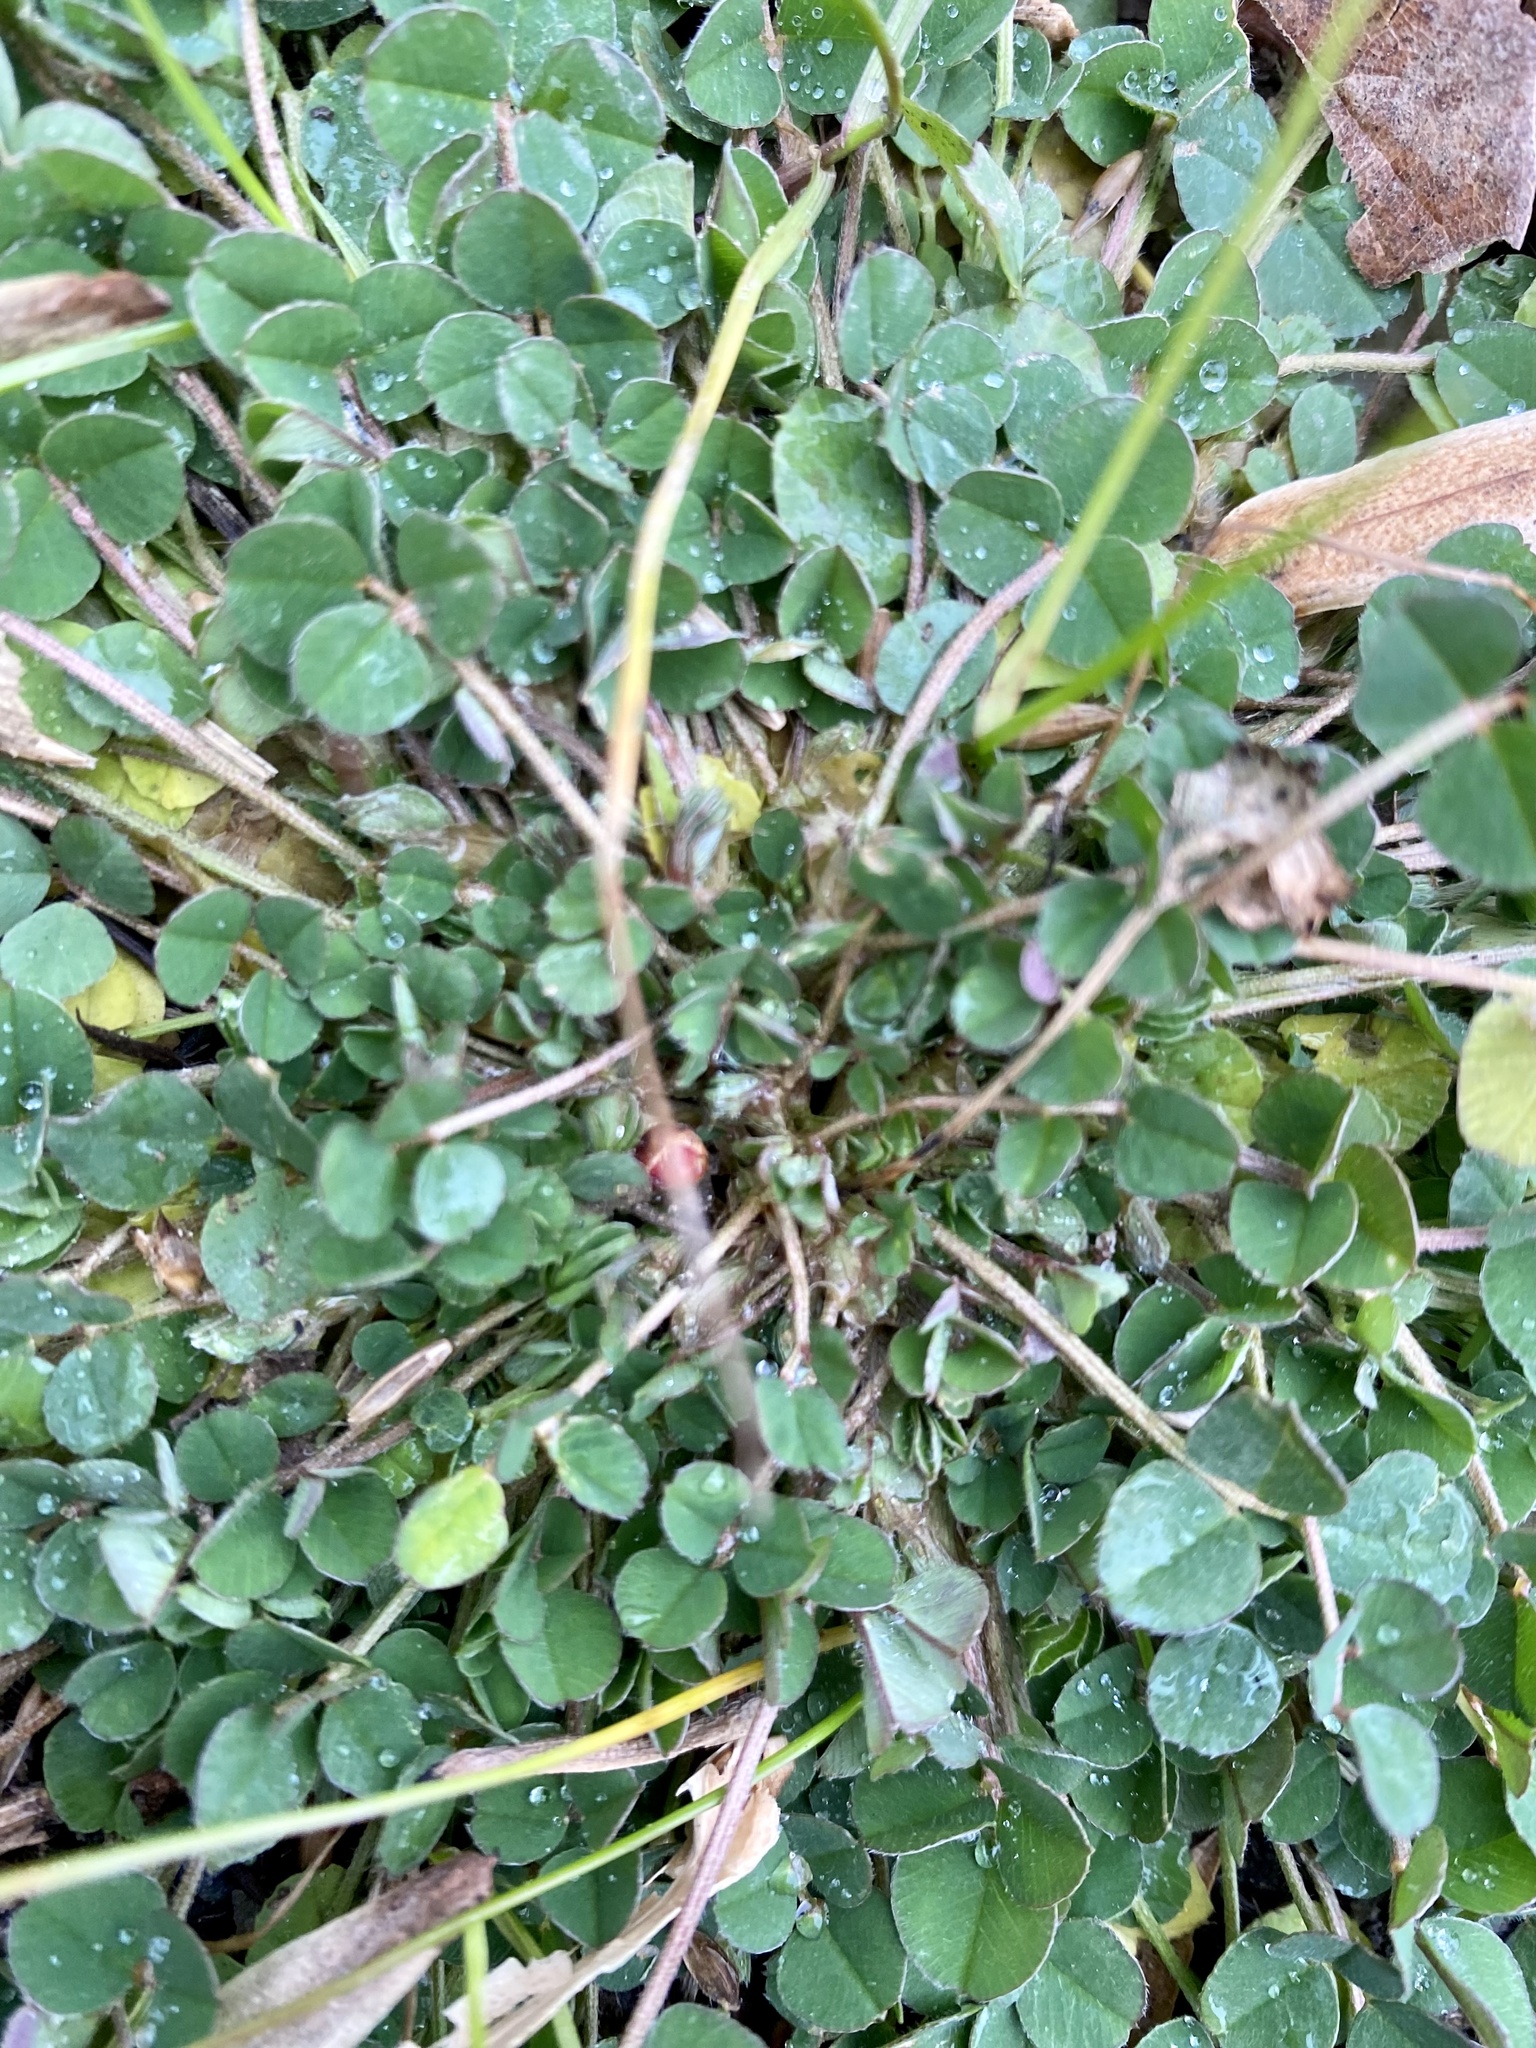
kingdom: Plantae
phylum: Tracheophyta
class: Magnoliopsida
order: Fabales
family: Fabaceae
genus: Medicago
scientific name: Medicago lupulina
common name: Black medick
